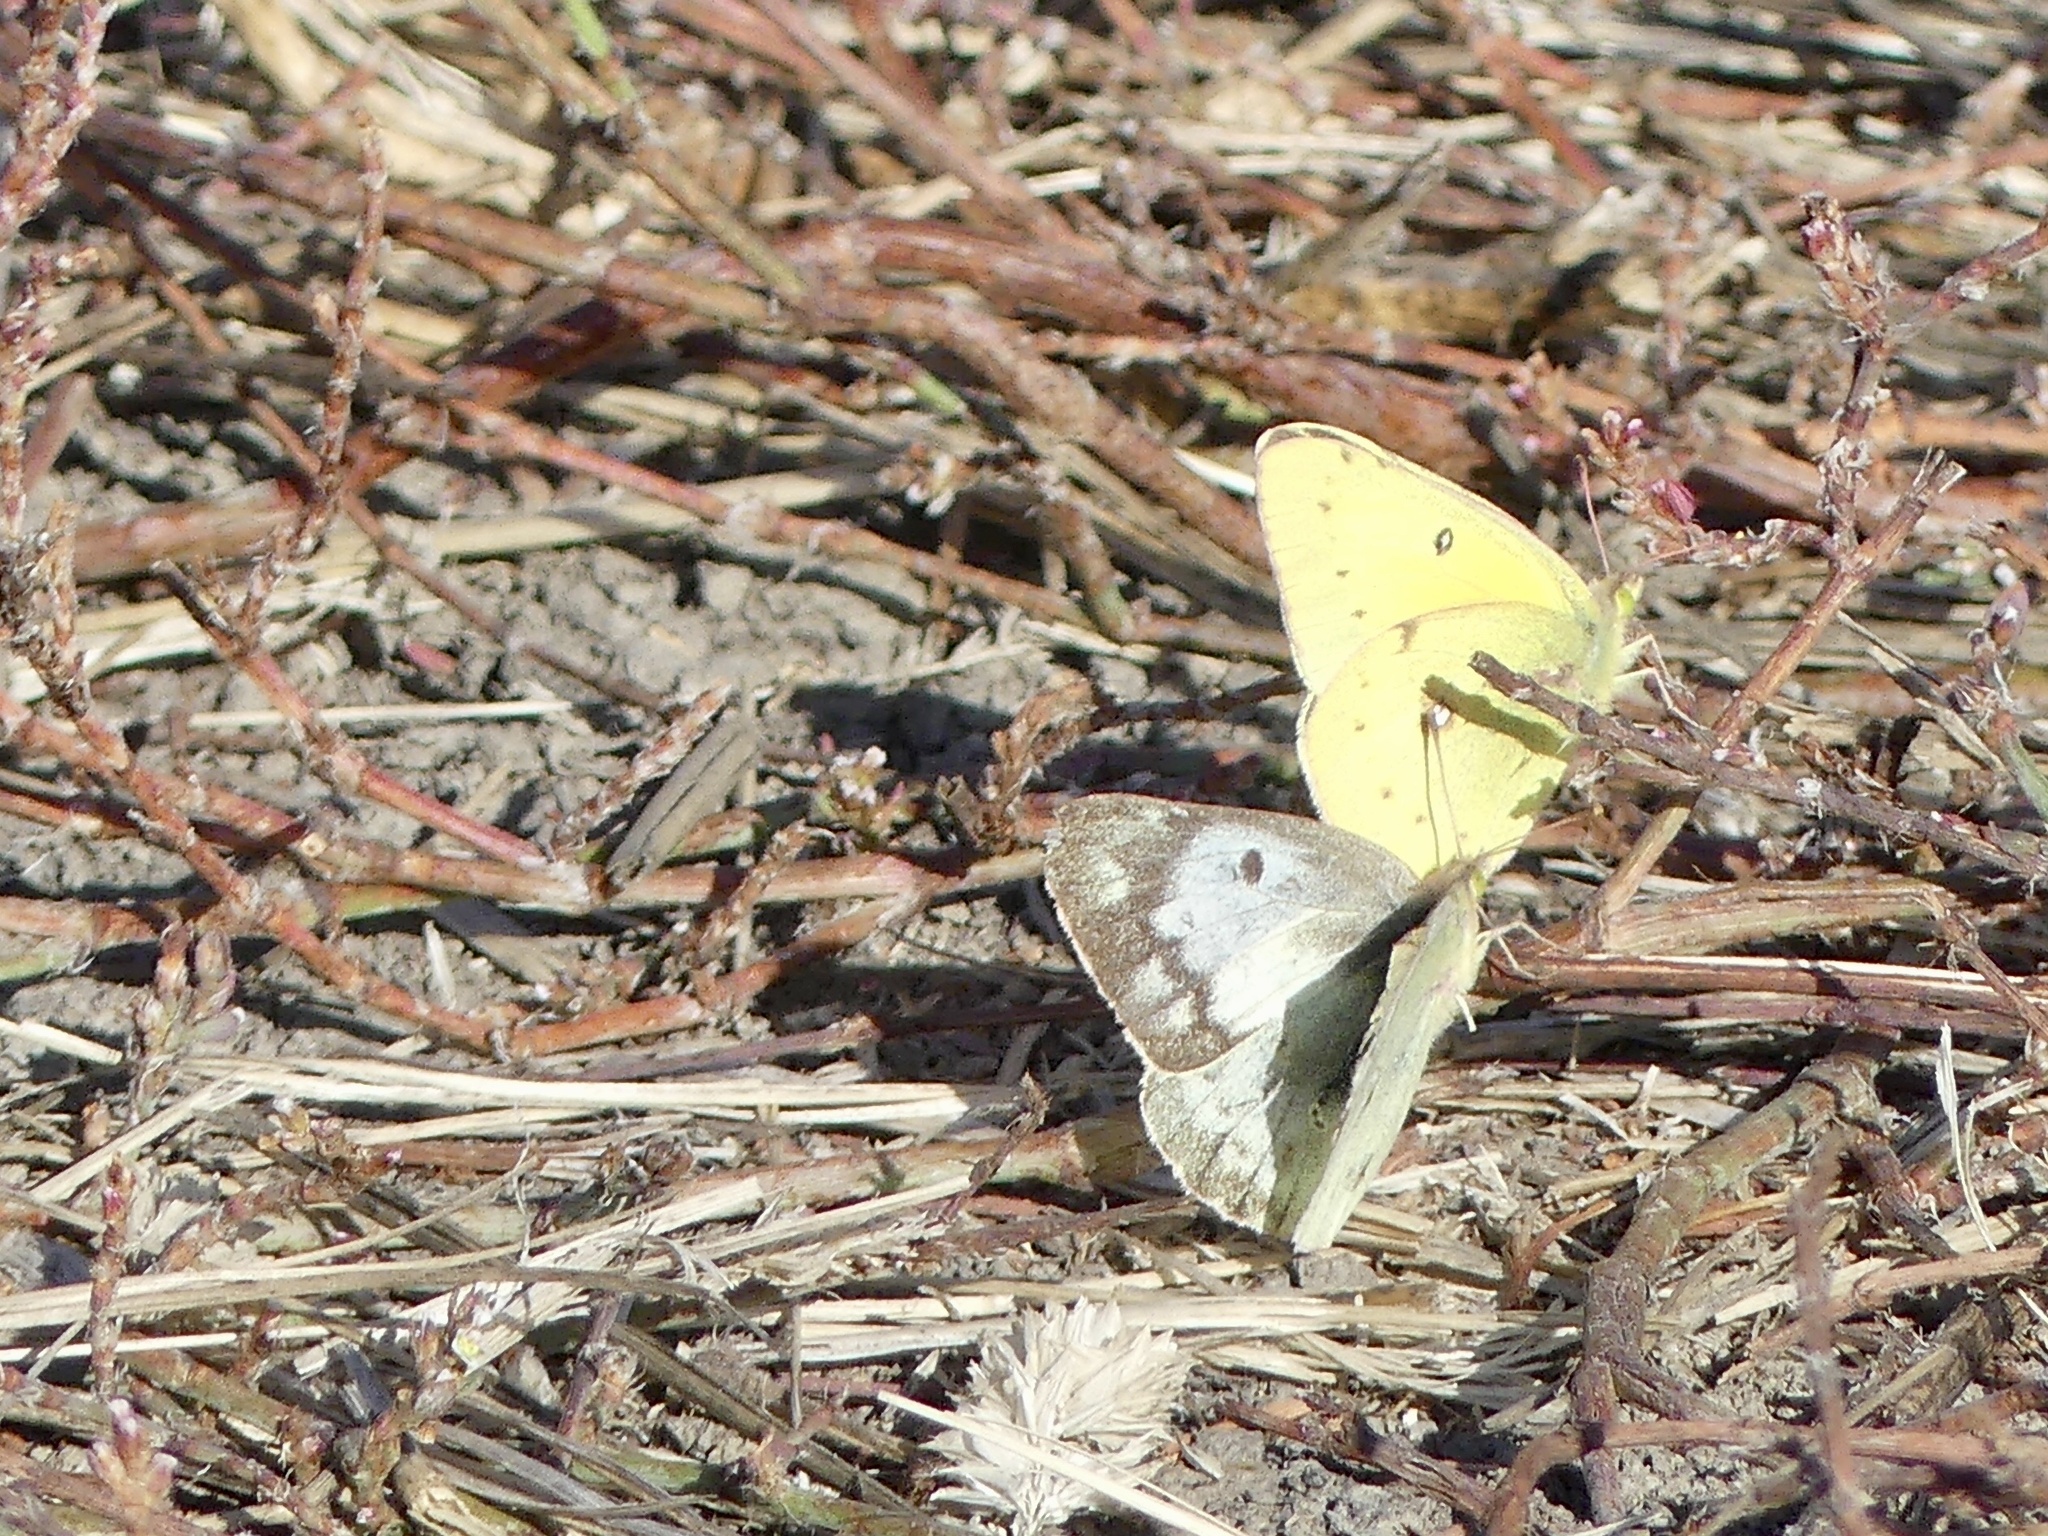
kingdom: Animalia
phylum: Arthropoda
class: Insecta
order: Lepidoptera
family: Pieridae
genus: Colias
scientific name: Colias eurytheme
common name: Alfalfa butterfly
